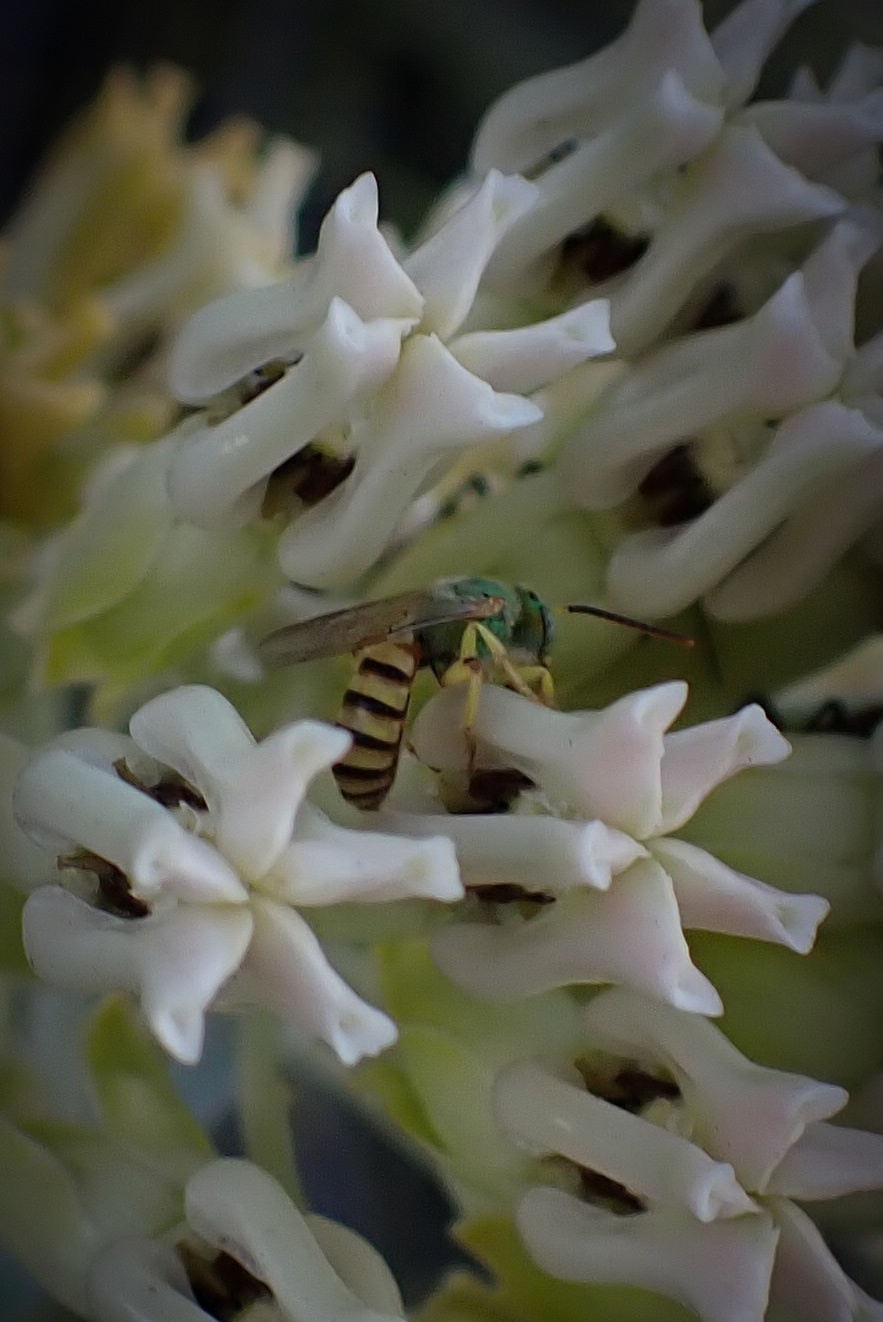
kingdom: Animalia
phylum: Arthropoda
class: Insecta
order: Hymenoptera
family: Halictidae
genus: Agapostemon
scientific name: Agapostemon melliventris
